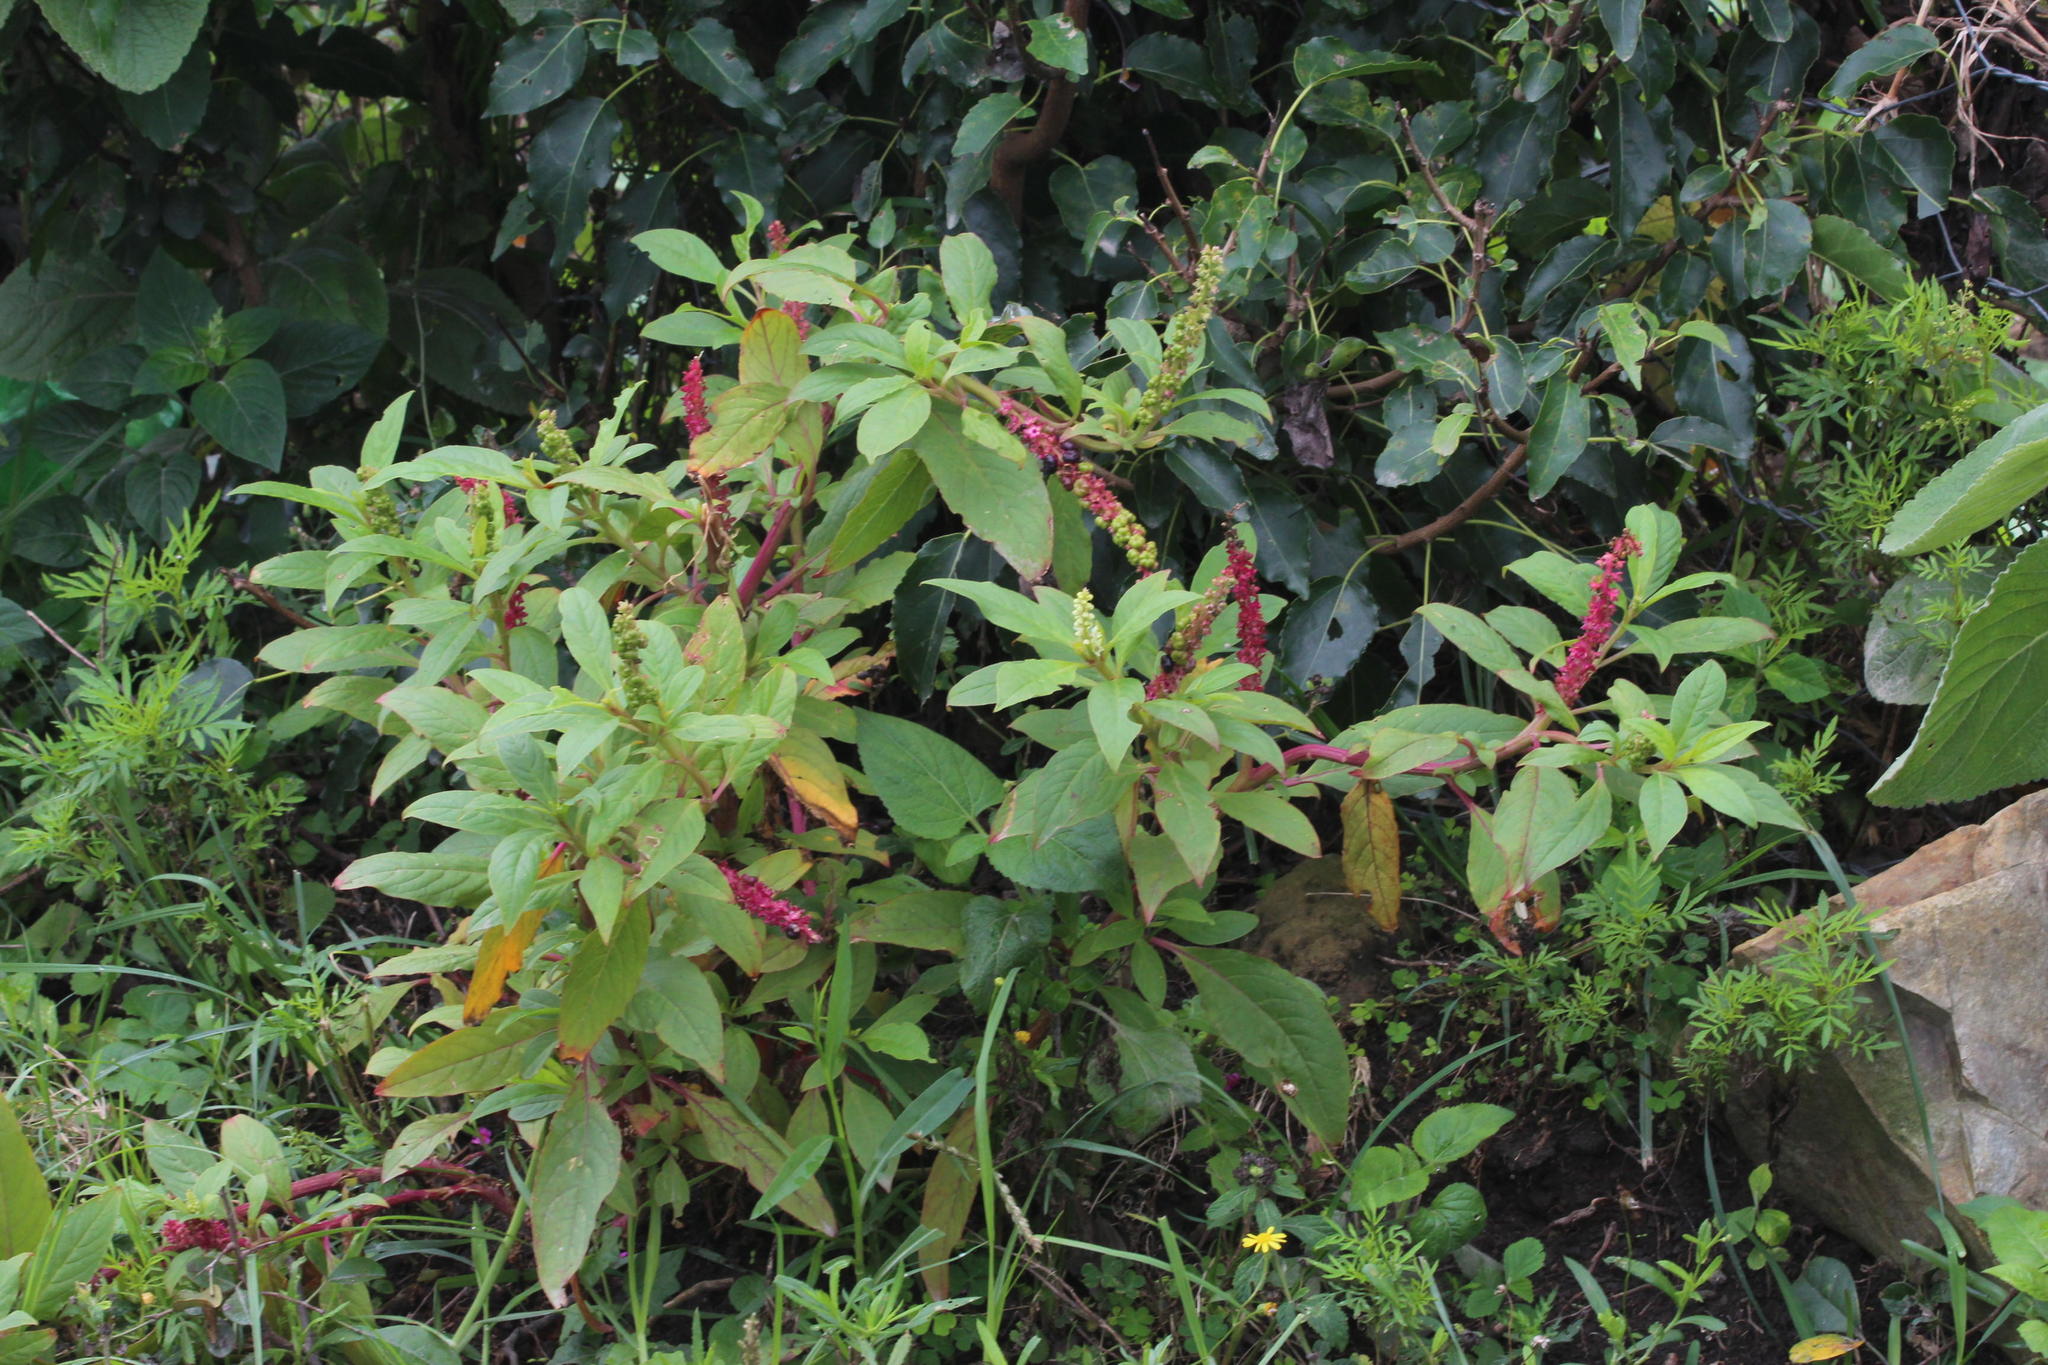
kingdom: Plantae
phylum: Tracheophyta
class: Magnoliopsida
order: Caryophyllales
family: Phytolaccaceae
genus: Phytolacca
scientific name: Phytolacca icosandra
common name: Button pokeweed
